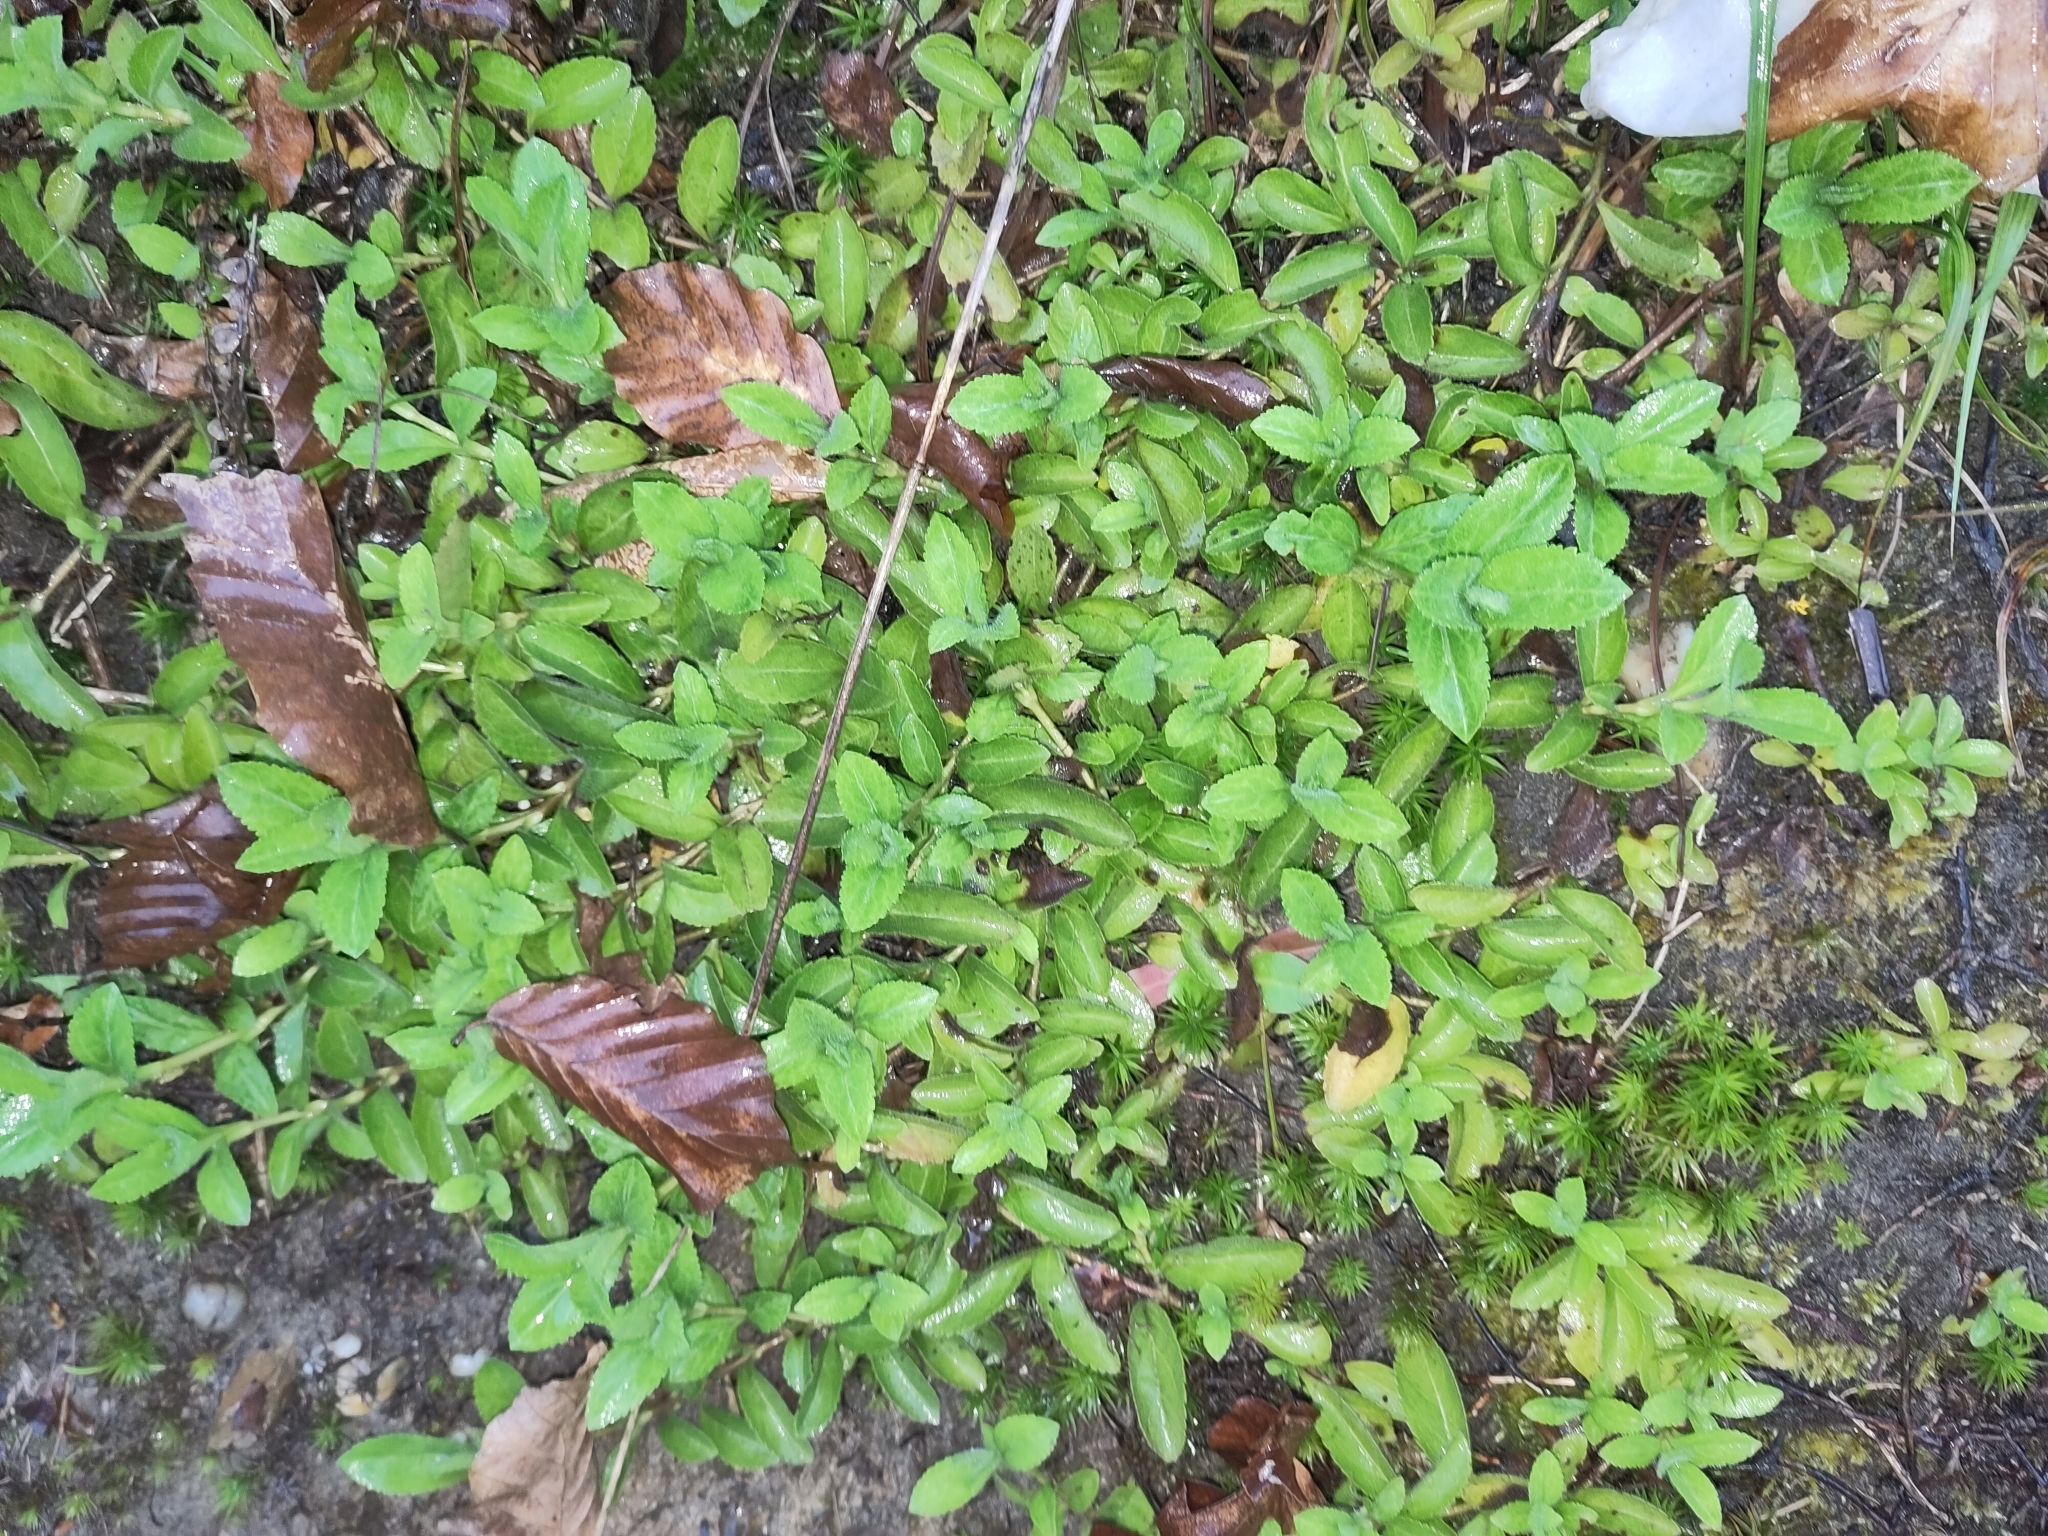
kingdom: Plantae
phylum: Tracheophyta
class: Magnoliopsida
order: Lamiales
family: Plantaginaceae
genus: Veronica
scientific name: Veronica officinalis
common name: Common speedwell
